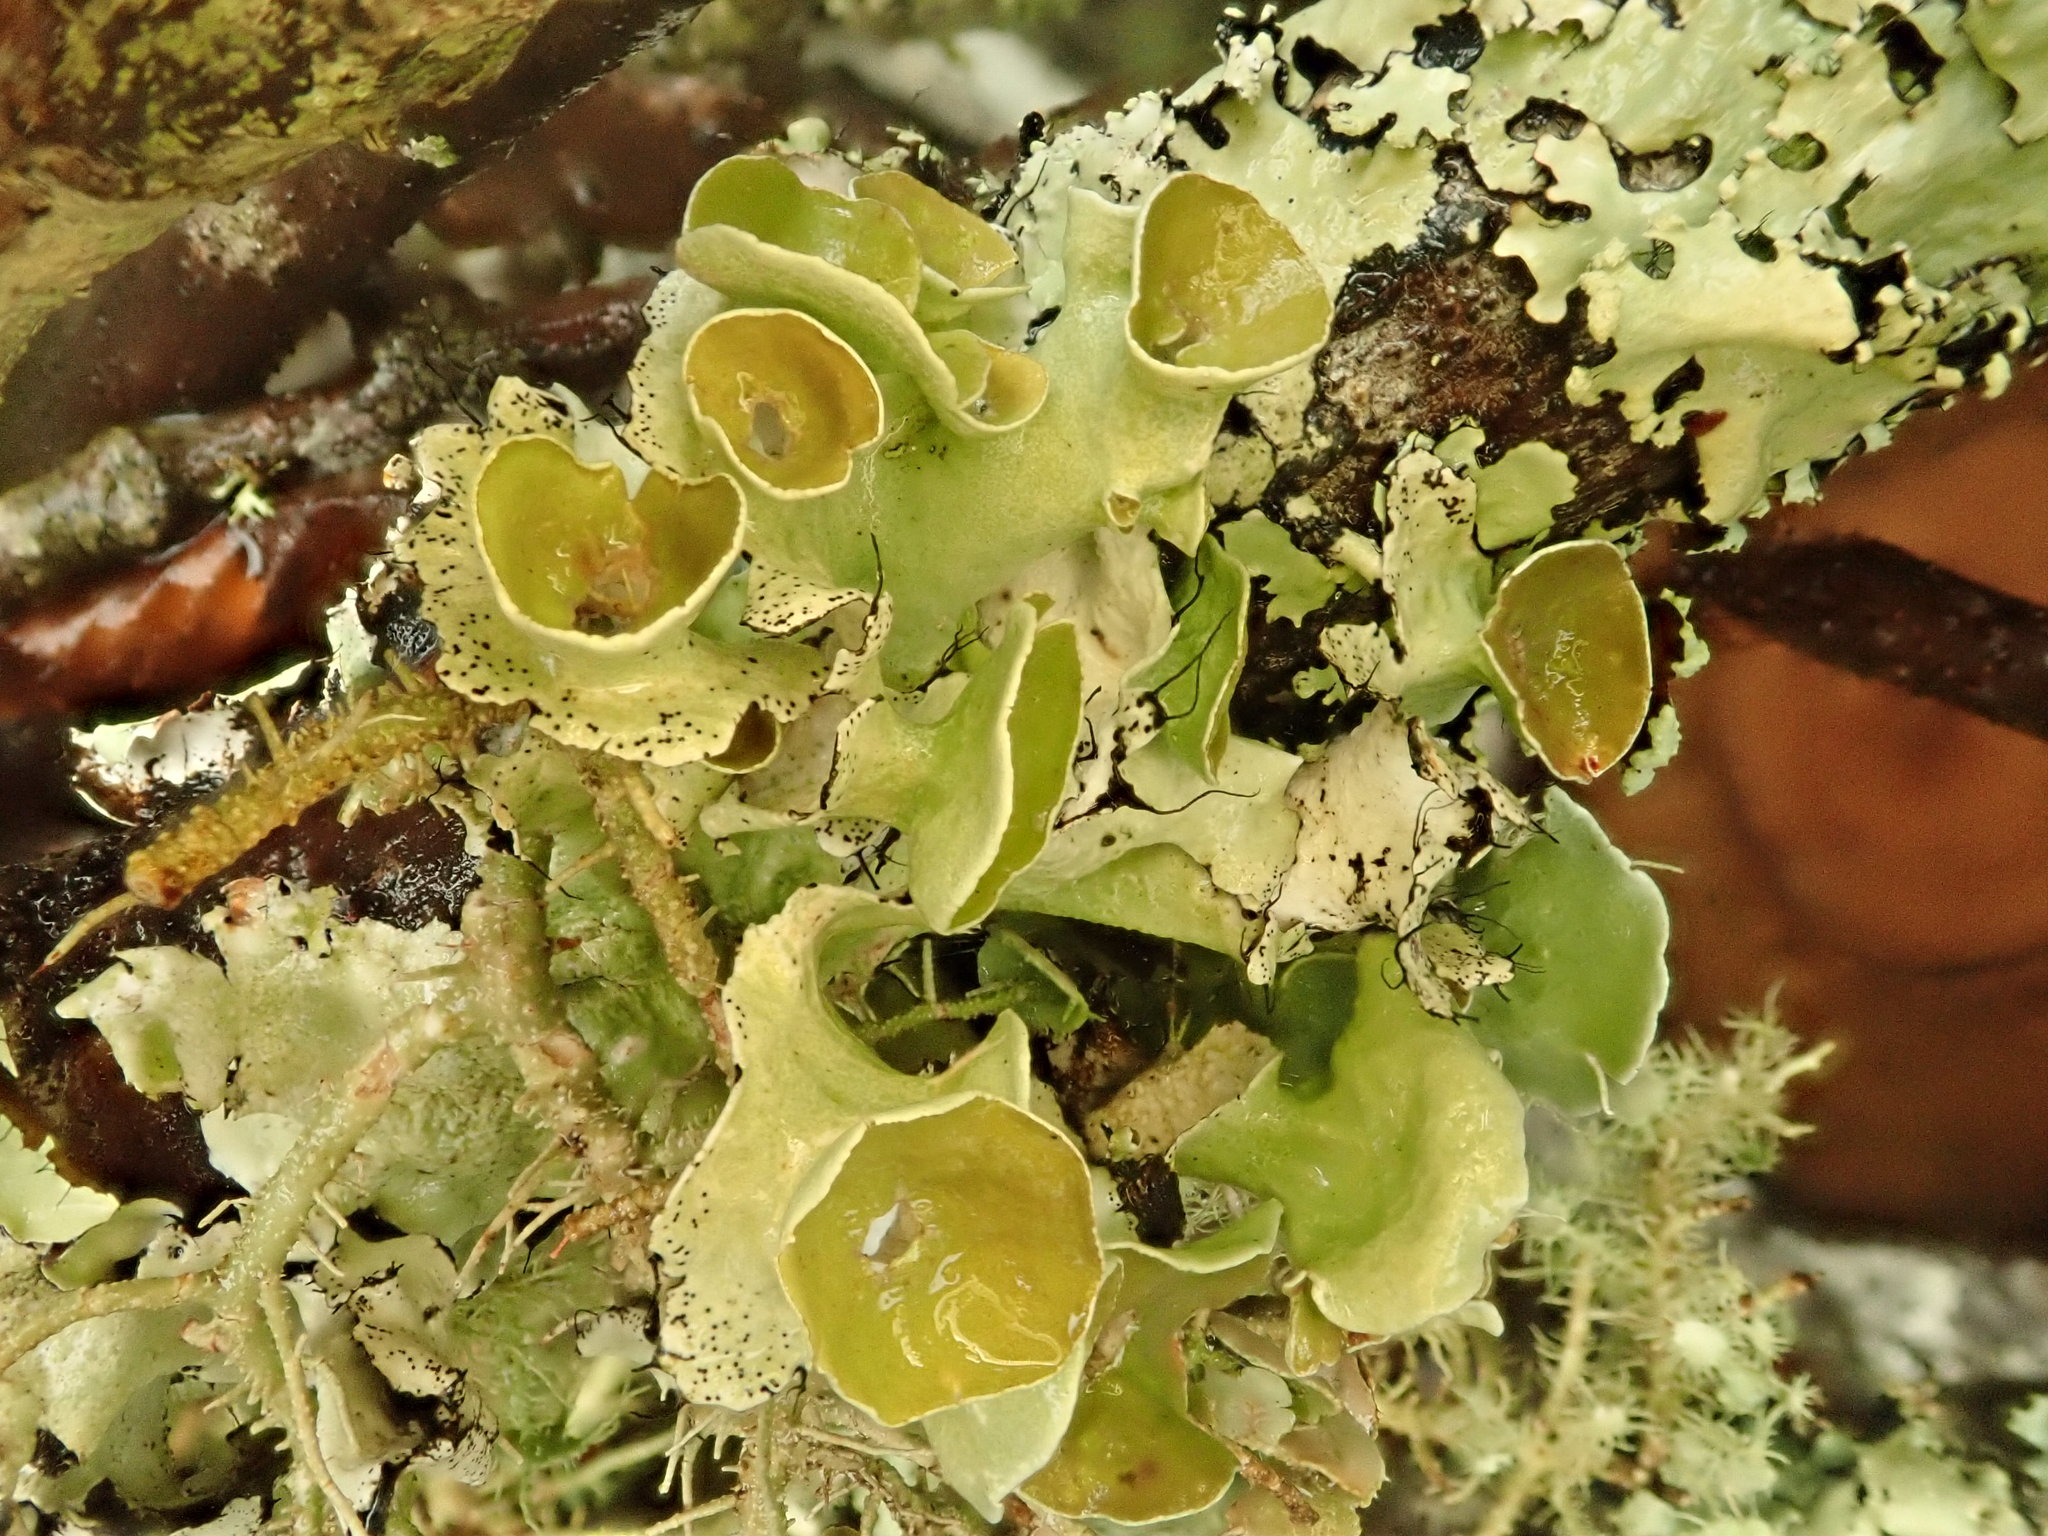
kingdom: Fungi
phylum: Ascomycota
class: Lecanoromycetes
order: Lecanorales
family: Parmeliaceae
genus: Parmotrema
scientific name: Parmotrema submarginale
